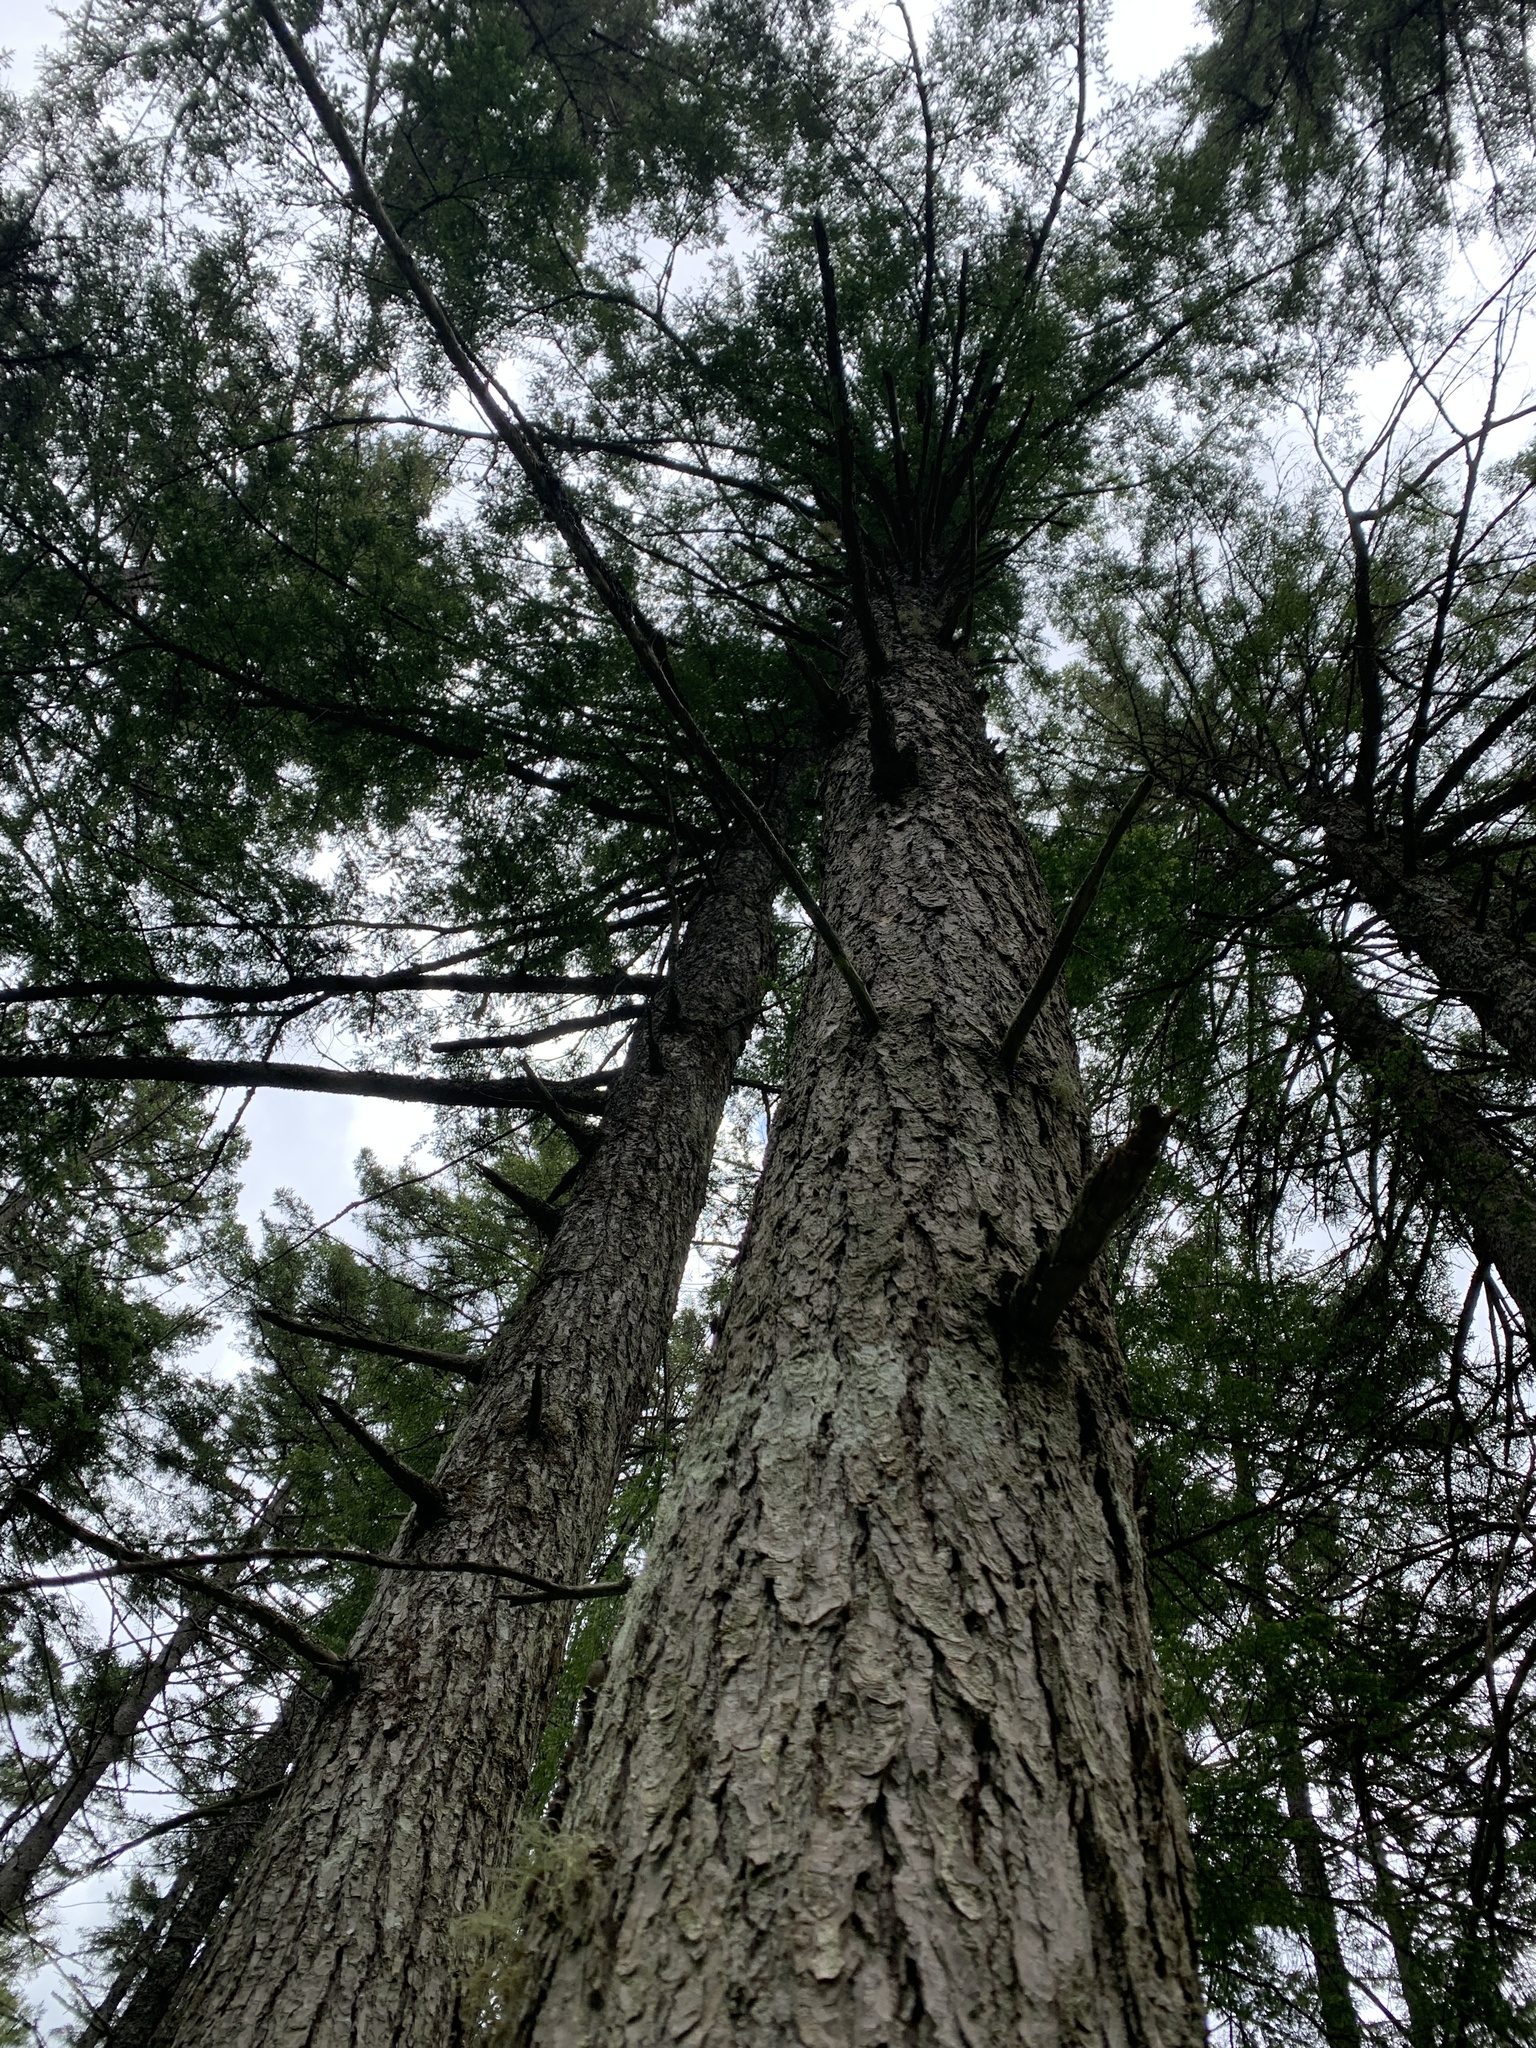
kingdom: Plantae
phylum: Tracheophyta
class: Pinopsida
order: Pinales
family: Pinaceae
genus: Tsuga
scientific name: Tsuga canadensis
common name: Eastern hemlock
